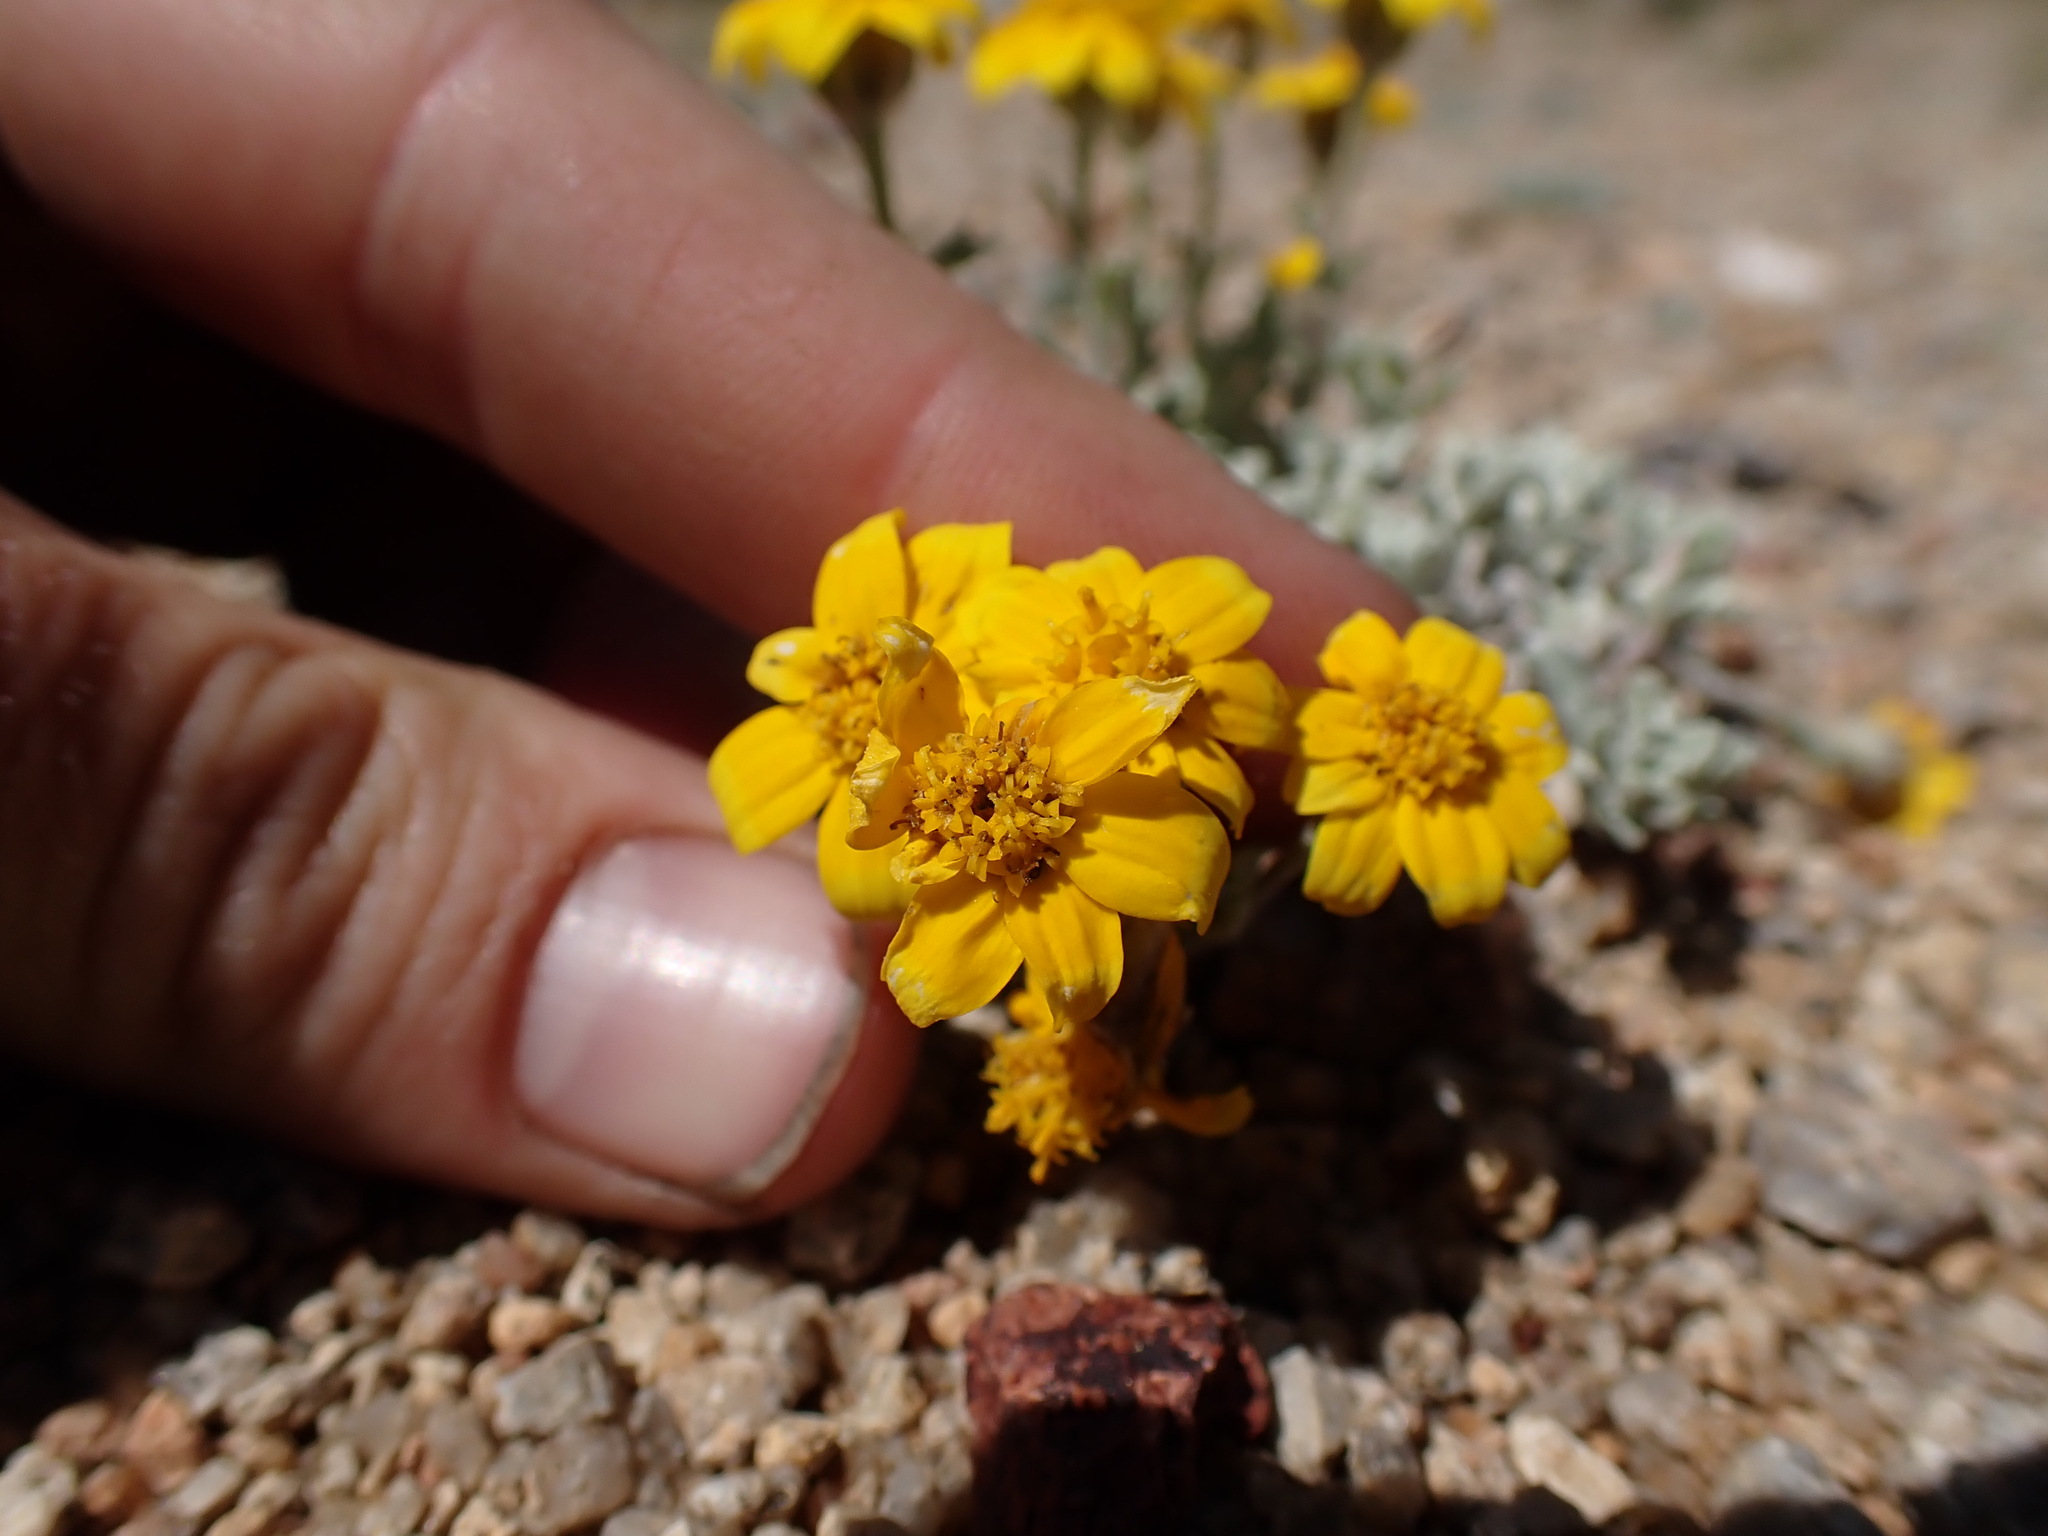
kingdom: Plantae
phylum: Tracheophyta
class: Magnoliopsida
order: Asterales
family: Asteraceae
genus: Eriophyllum
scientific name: Eriophyllum lanatum
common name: Common woolly-sunflower
